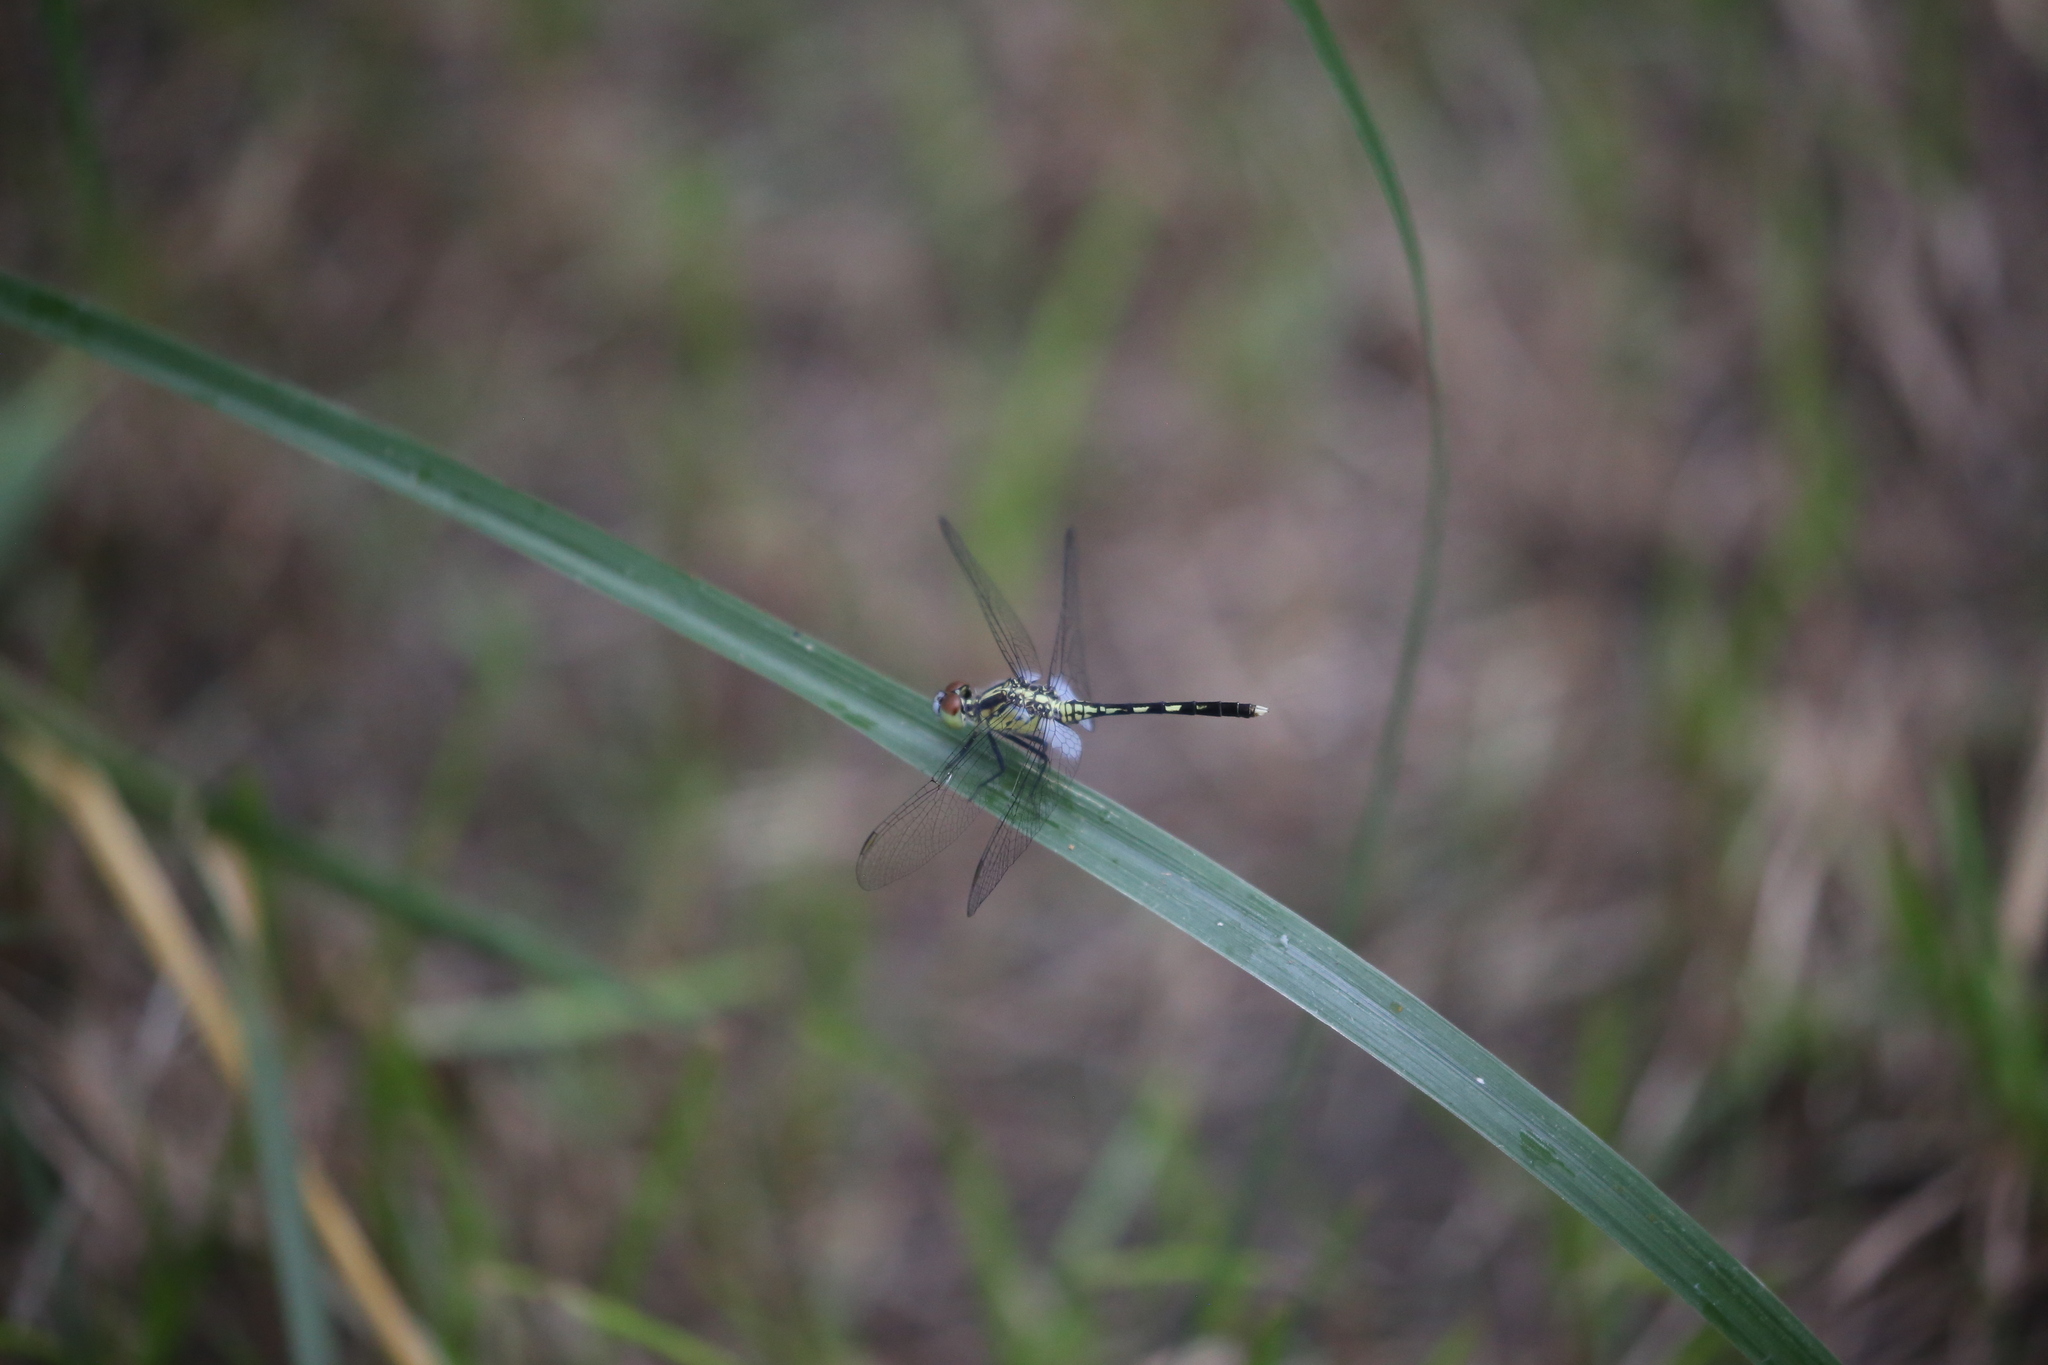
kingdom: Animalia
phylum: Arthropoda
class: Insecta
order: Odonata
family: Libellulidae
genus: Diplacodes
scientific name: Diplacodes trivialis
